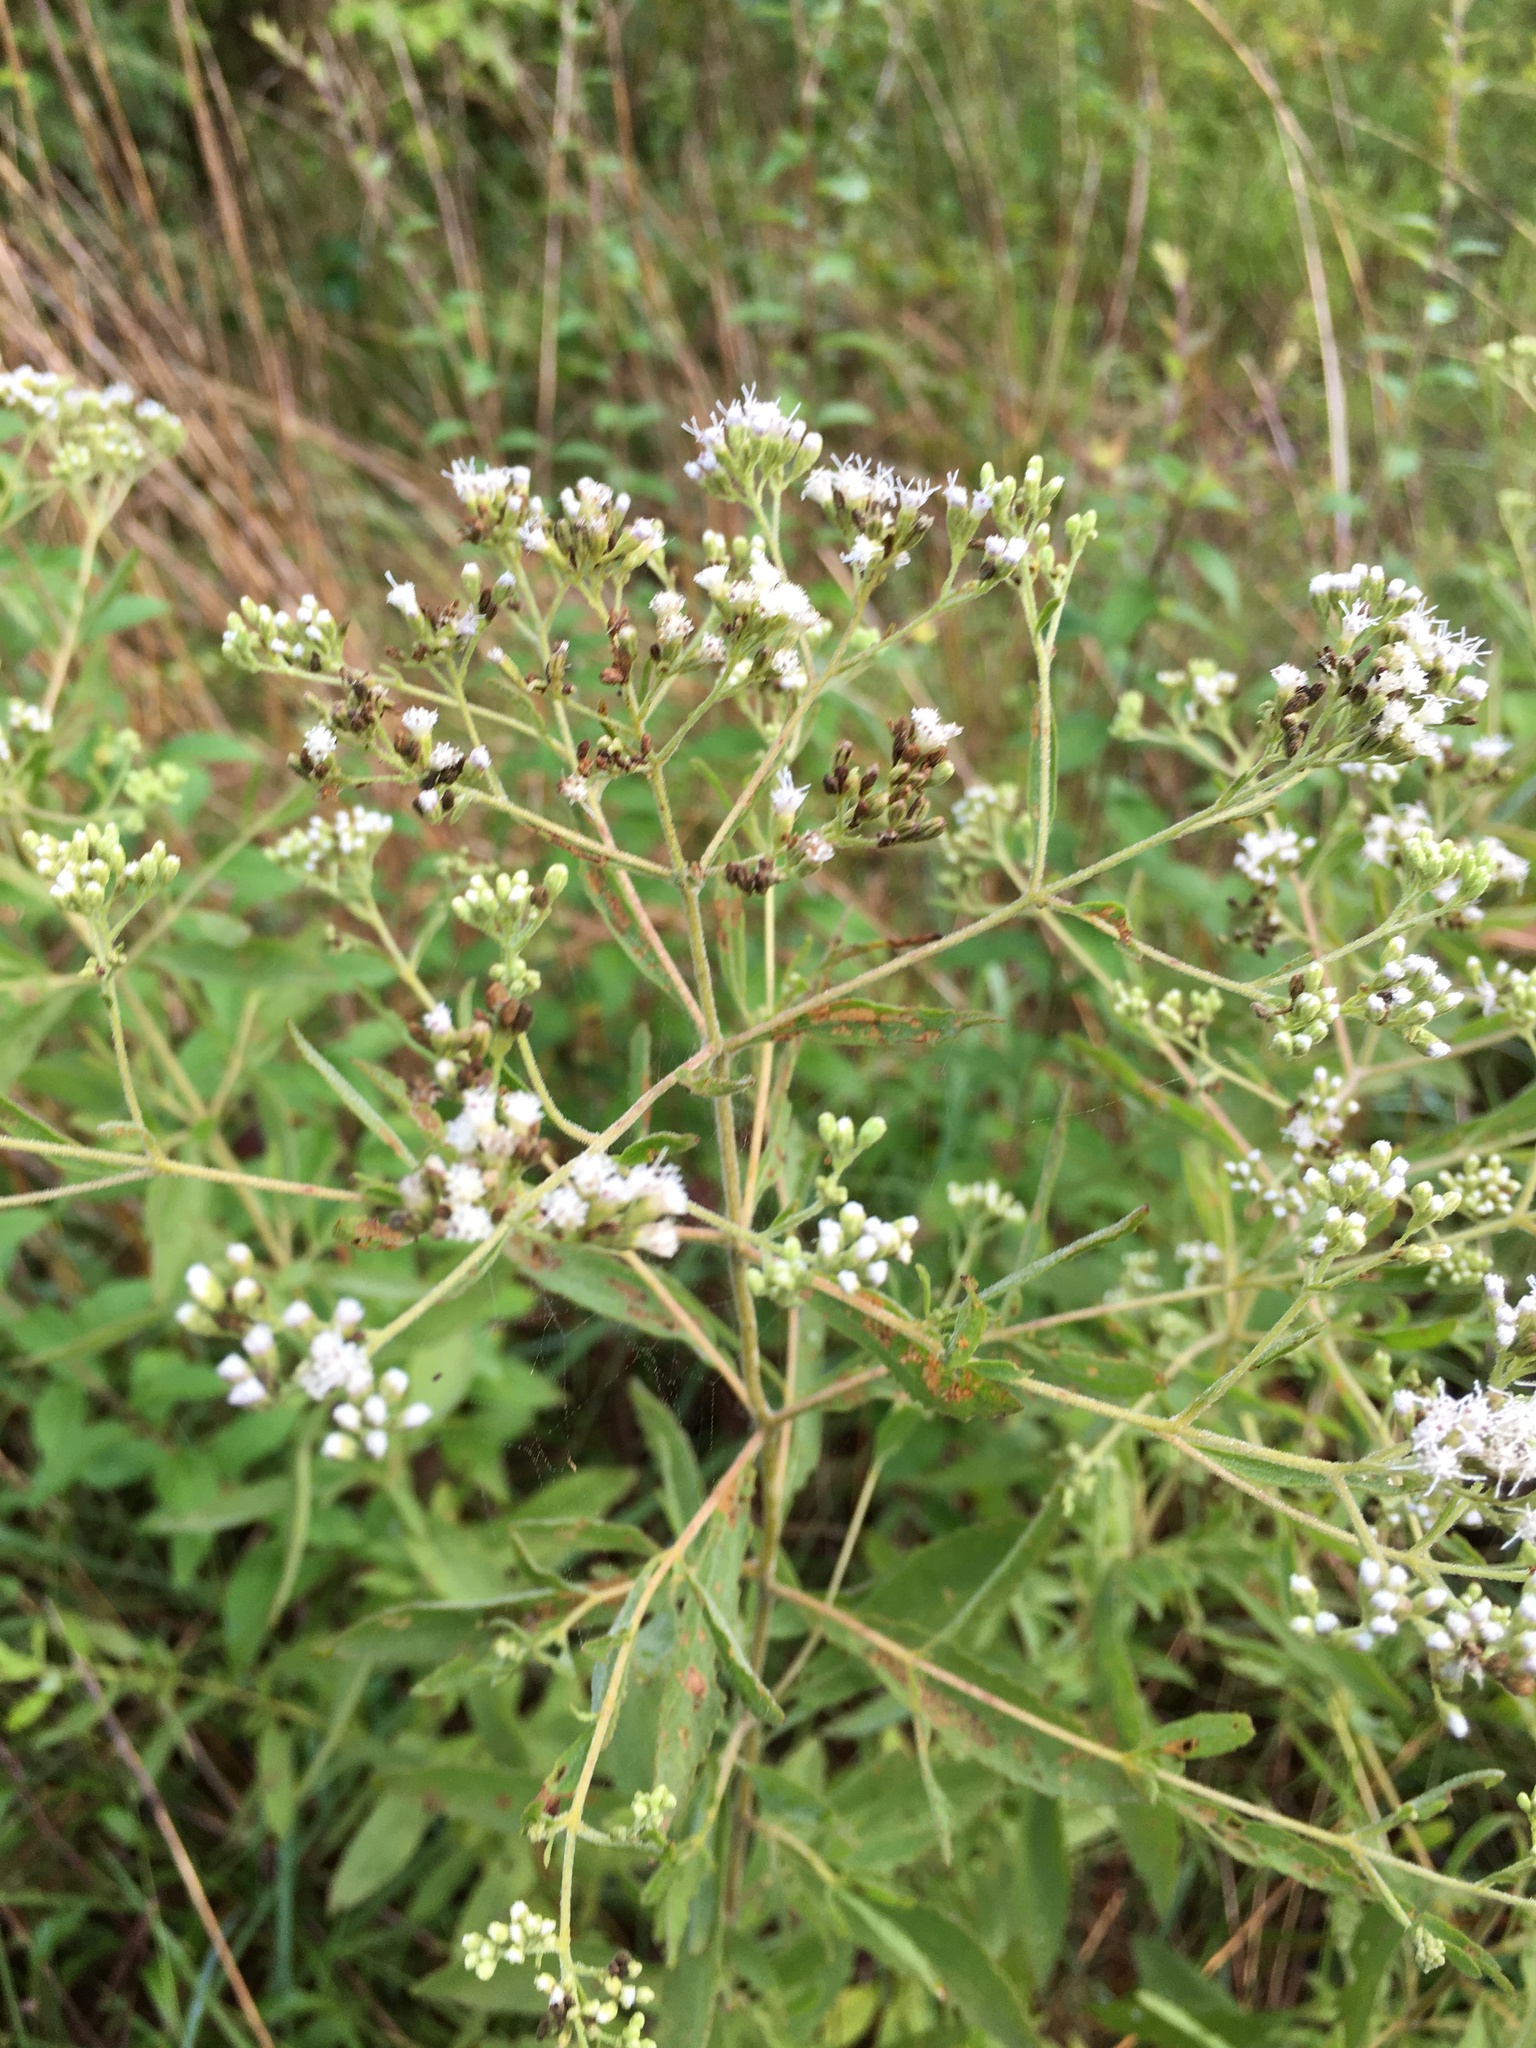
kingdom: Plantae
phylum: Tracheophyta
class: Magnoliopsida
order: Asterales
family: Asteraceae
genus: Eupatorium
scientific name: Eupatorium semiserratum
